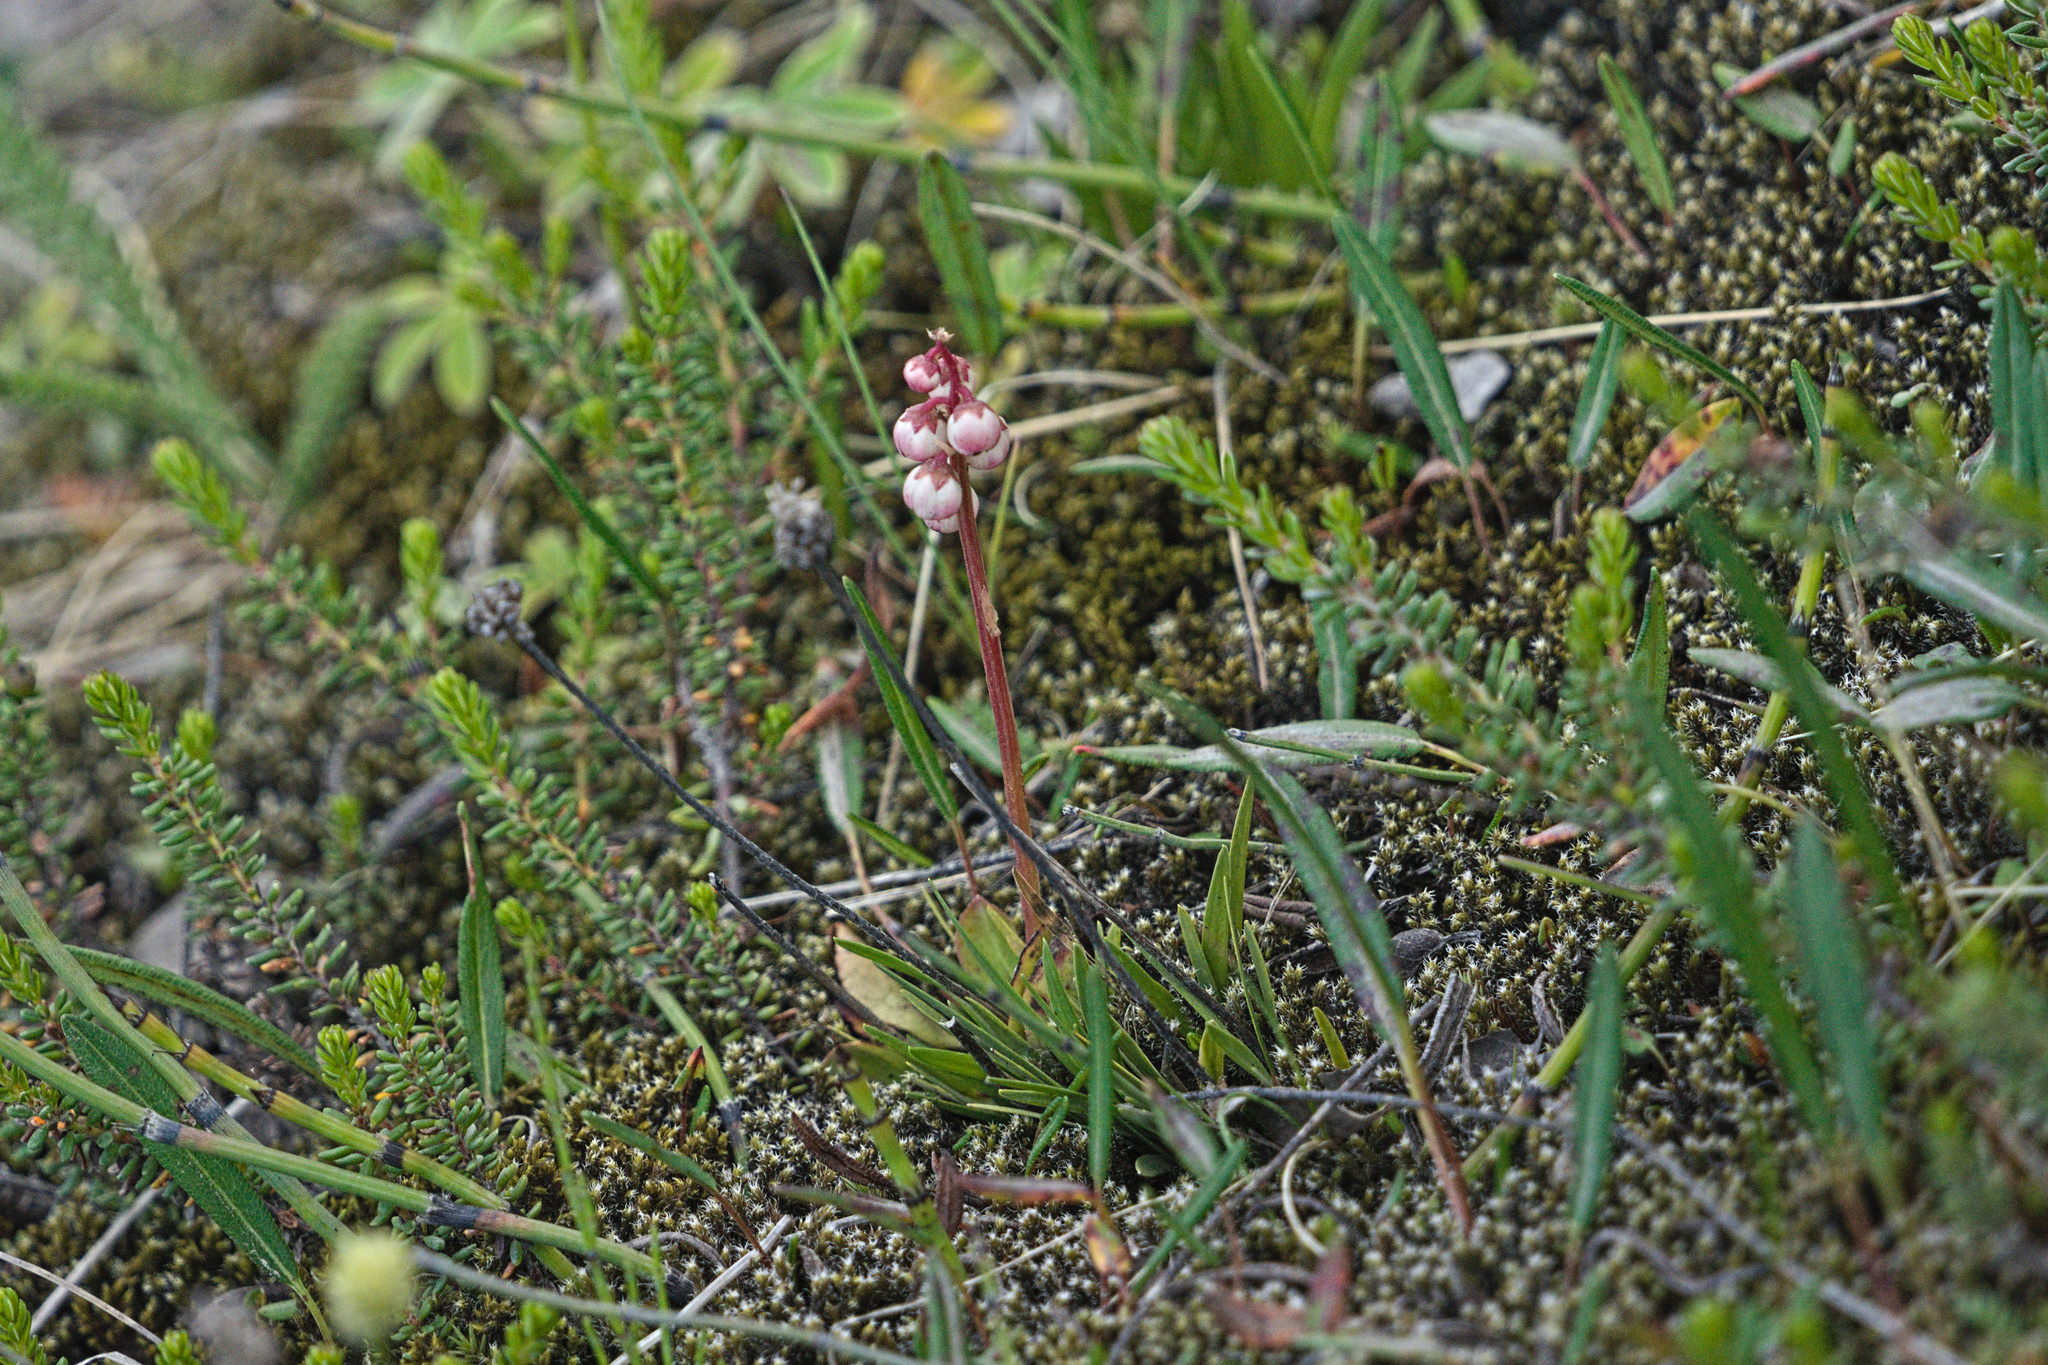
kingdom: Plantae
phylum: Tracheophyta
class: Magnoliopsida
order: Ericales
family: Ericaceae
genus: Pyrola
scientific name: Pyrola minor
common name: Common wintergreen
